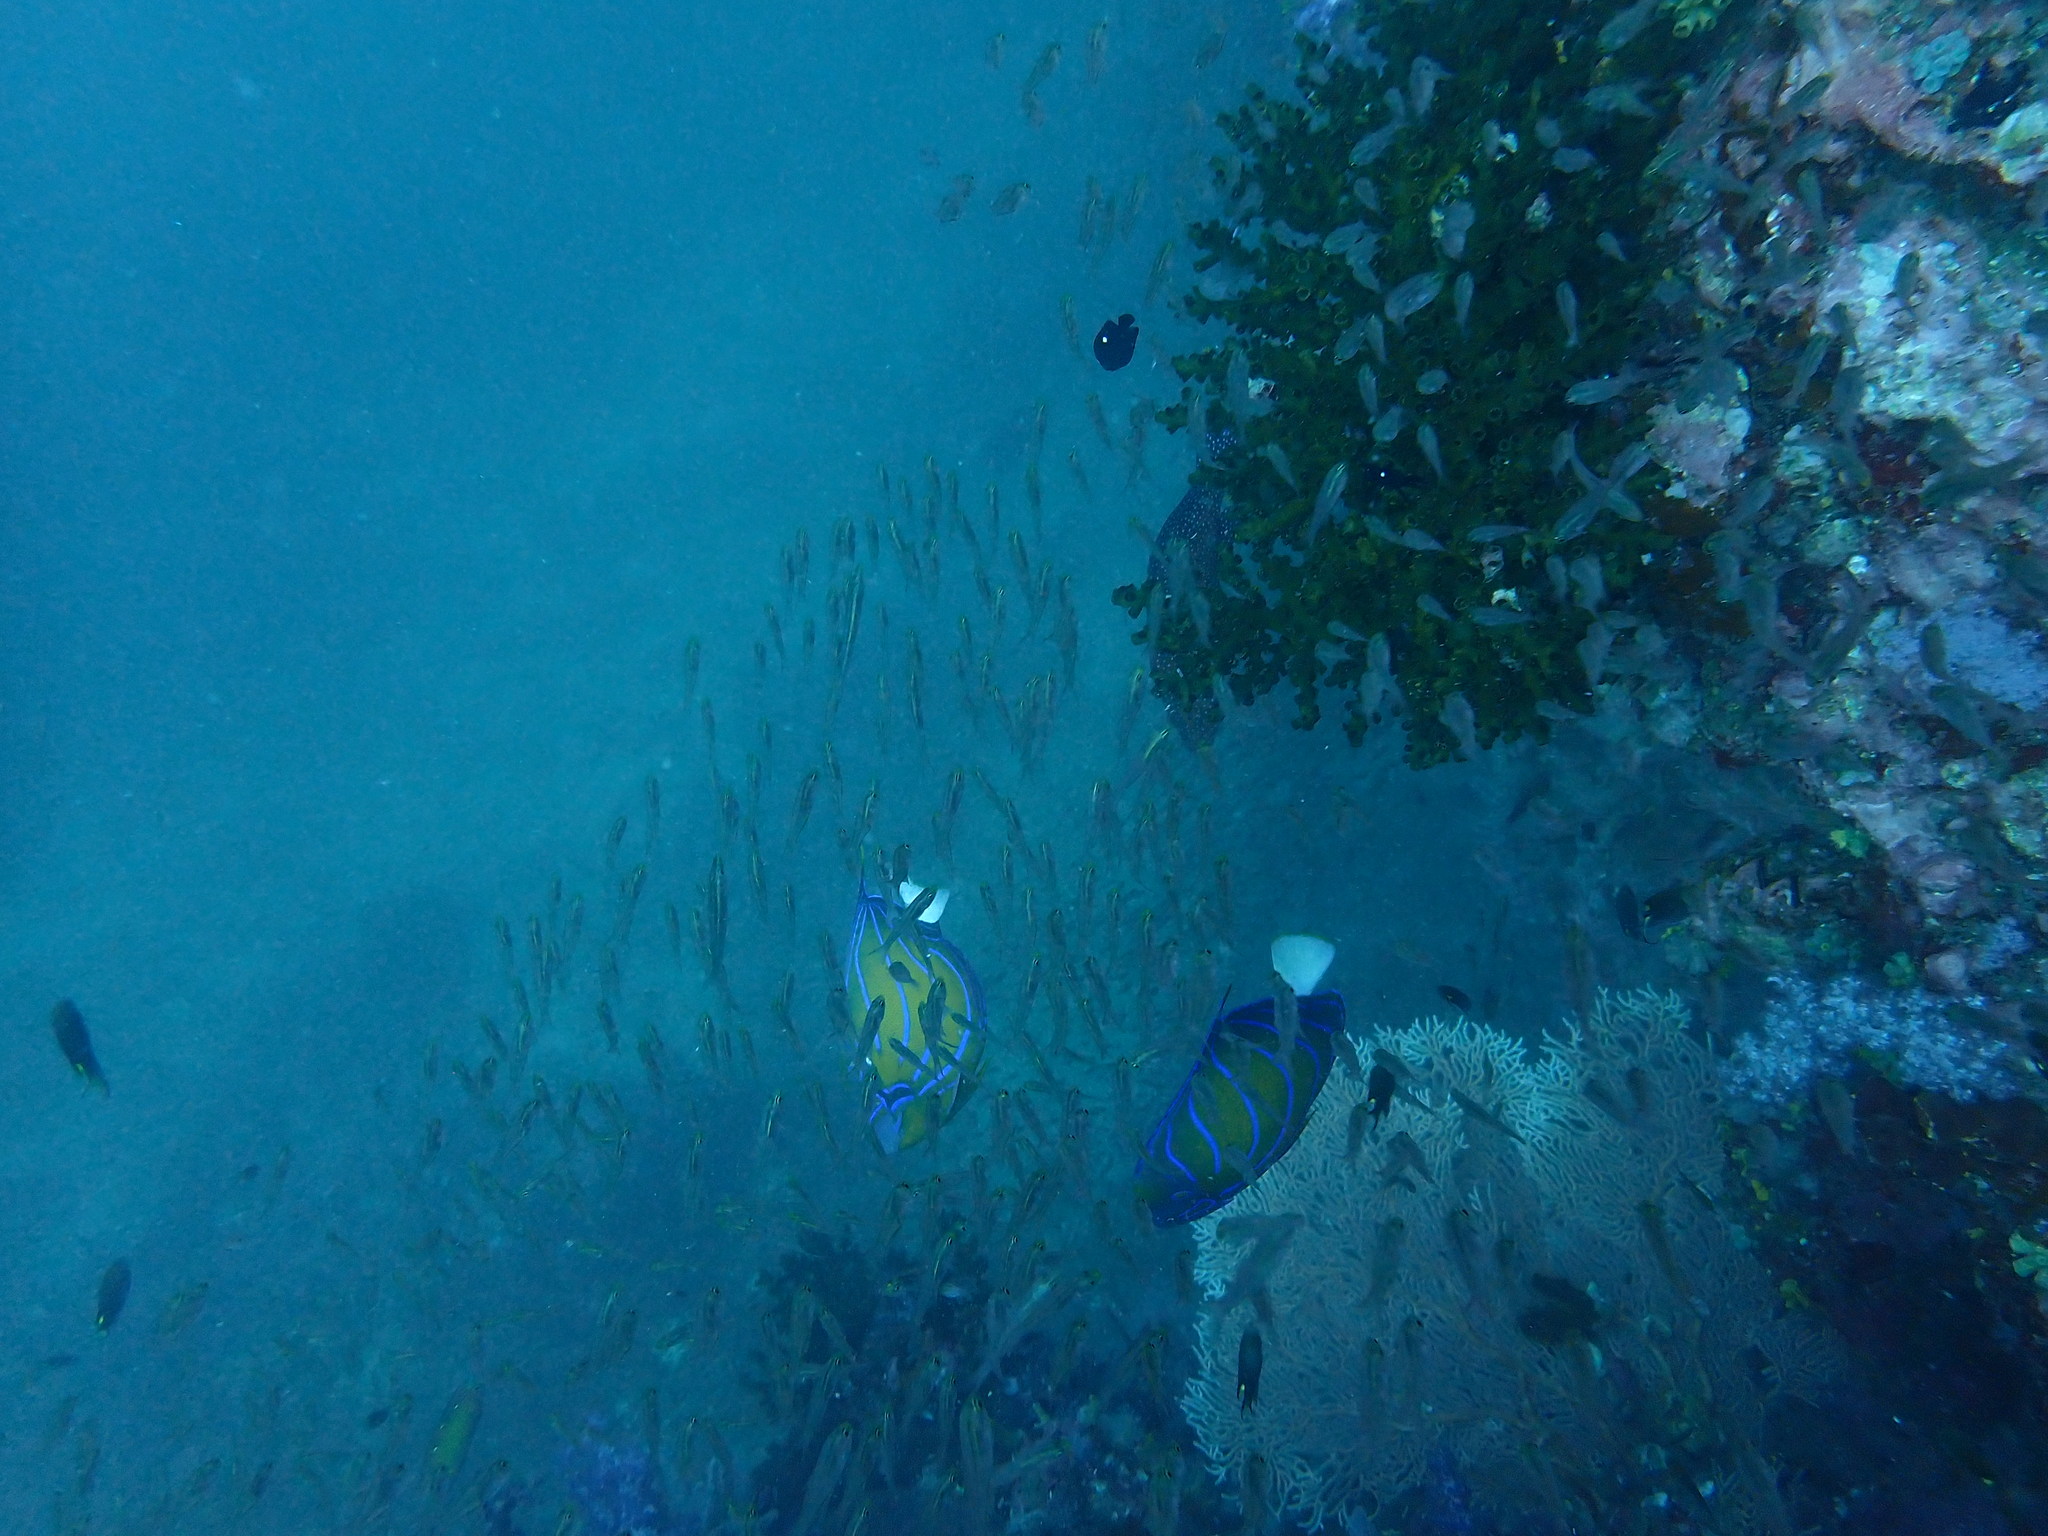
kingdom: Animalia
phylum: Chordata
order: Perciformes
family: Pomacanthidae
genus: Pomacanthus
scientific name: Pomacanthus annularis
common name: Bluering angelfish
